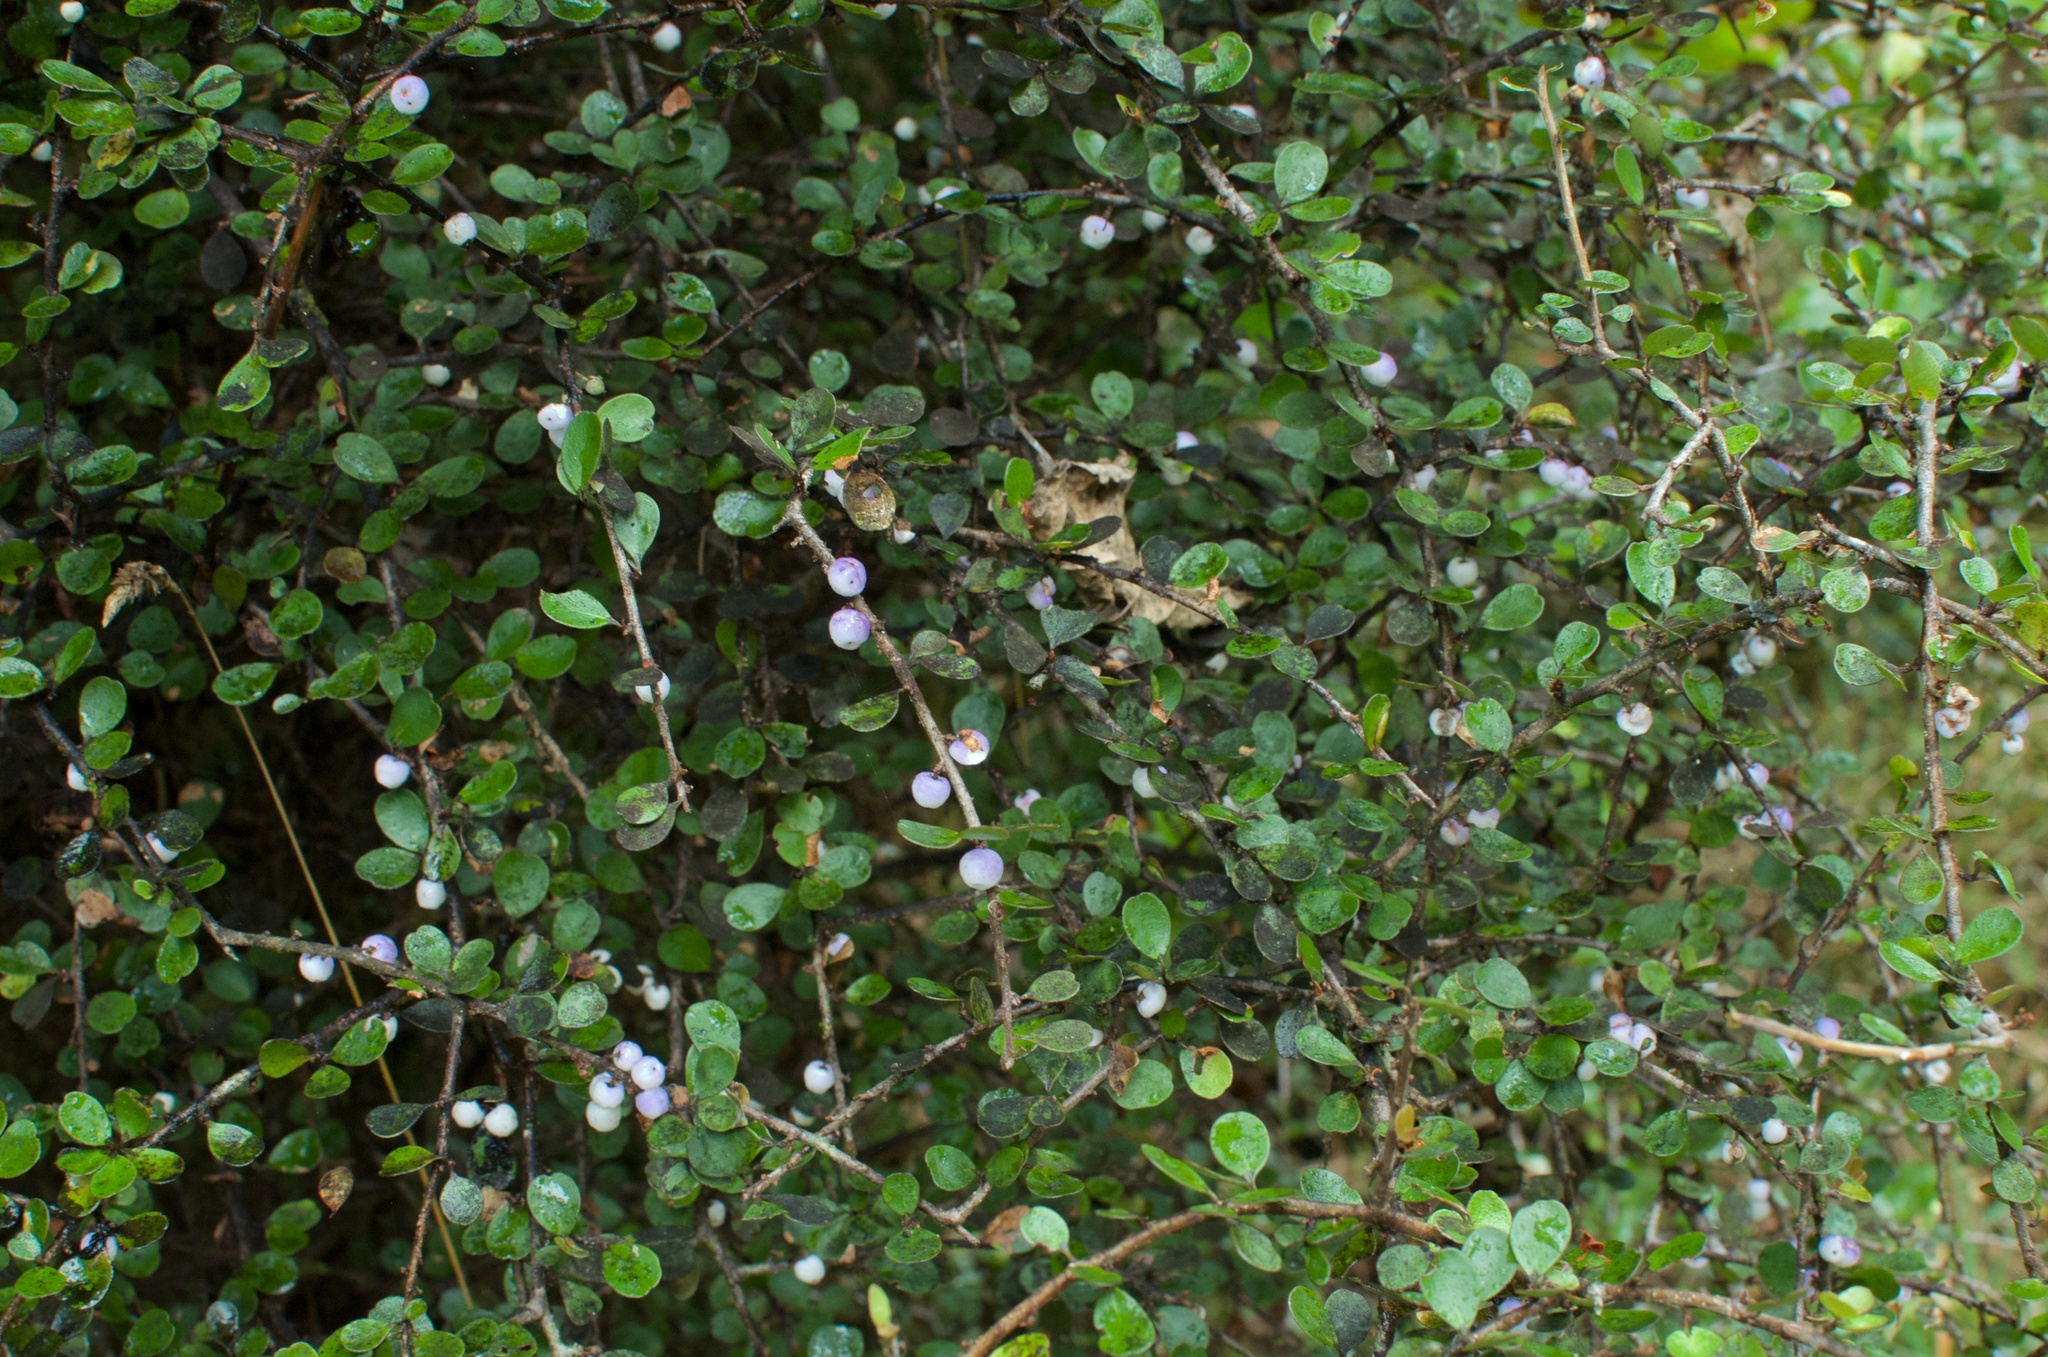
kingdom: Plantae
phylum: Tracheophyta
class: Magnoliopsida
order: Ericales
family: Primulaceae
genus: Myrsine
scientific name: Myrsine divaricata
